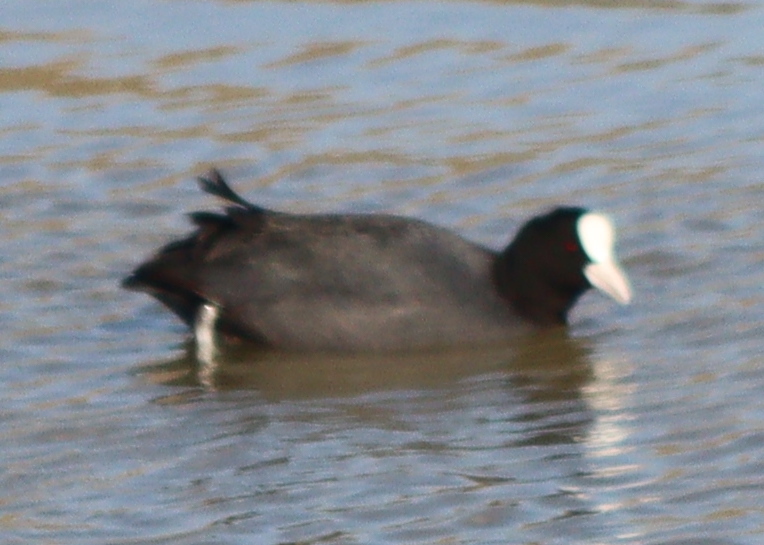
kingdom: Animalia
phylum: Chordata
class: Aves
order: Gruiformes
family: Rallidae
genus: Fulica
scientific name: Fulica atra
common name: Eurasian coot
